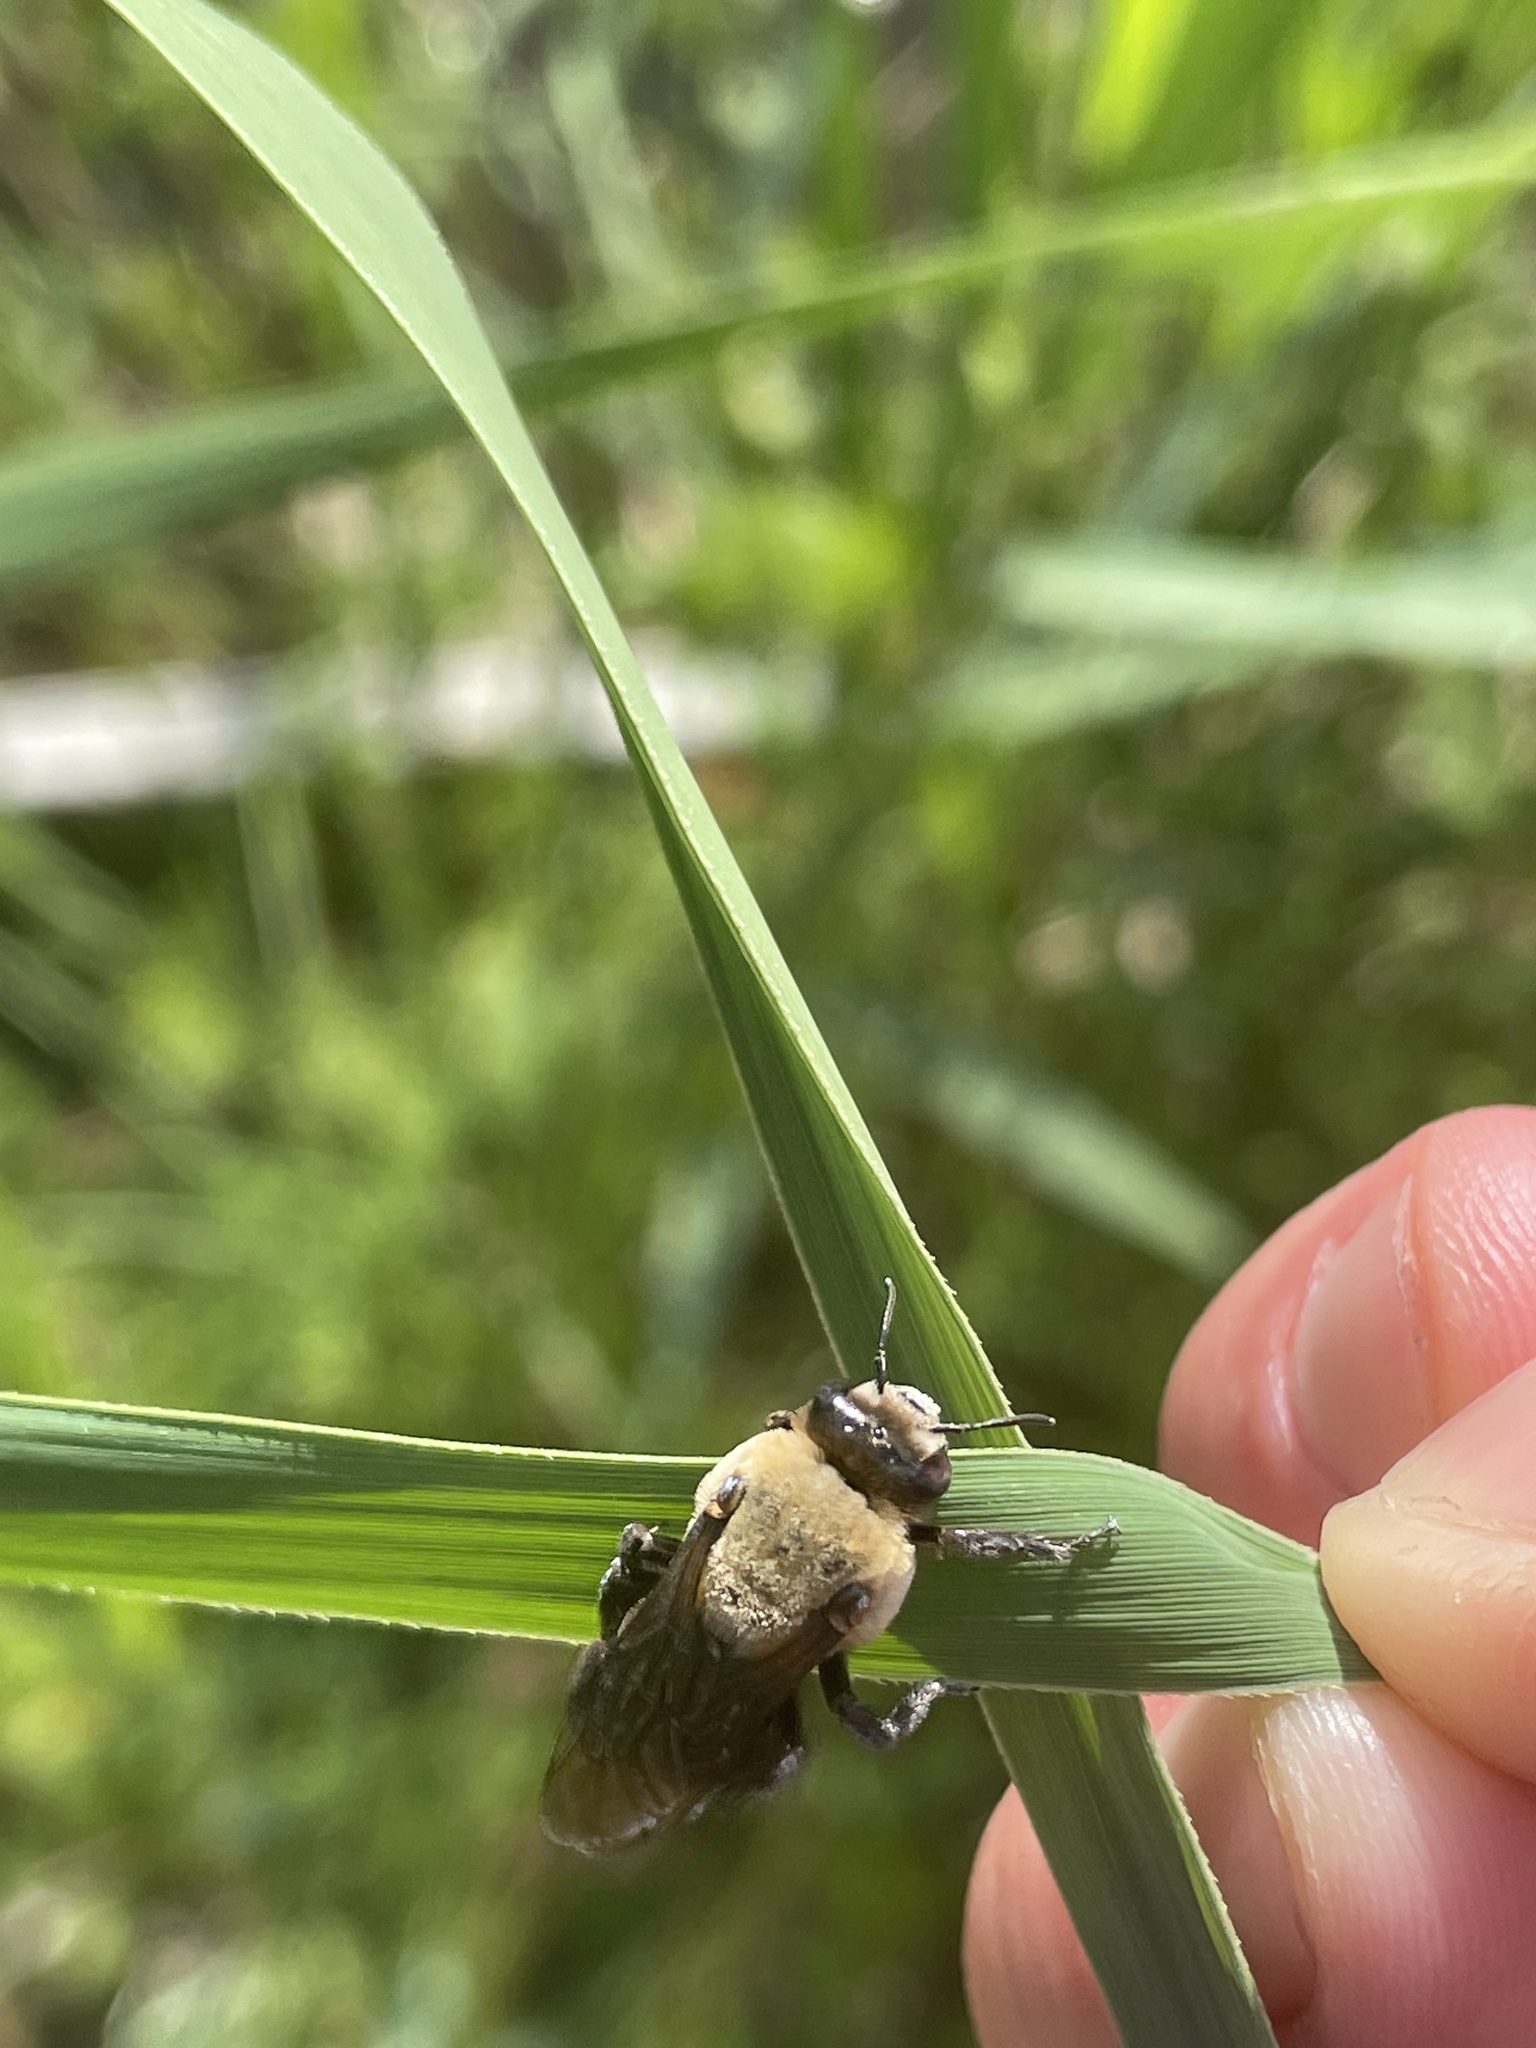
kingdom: Animalia
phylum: Arthropoda
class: Insecta
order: Hymenoptera
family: Apidae
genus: Ptilothrix
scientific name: Ptilothrix bombiformis
